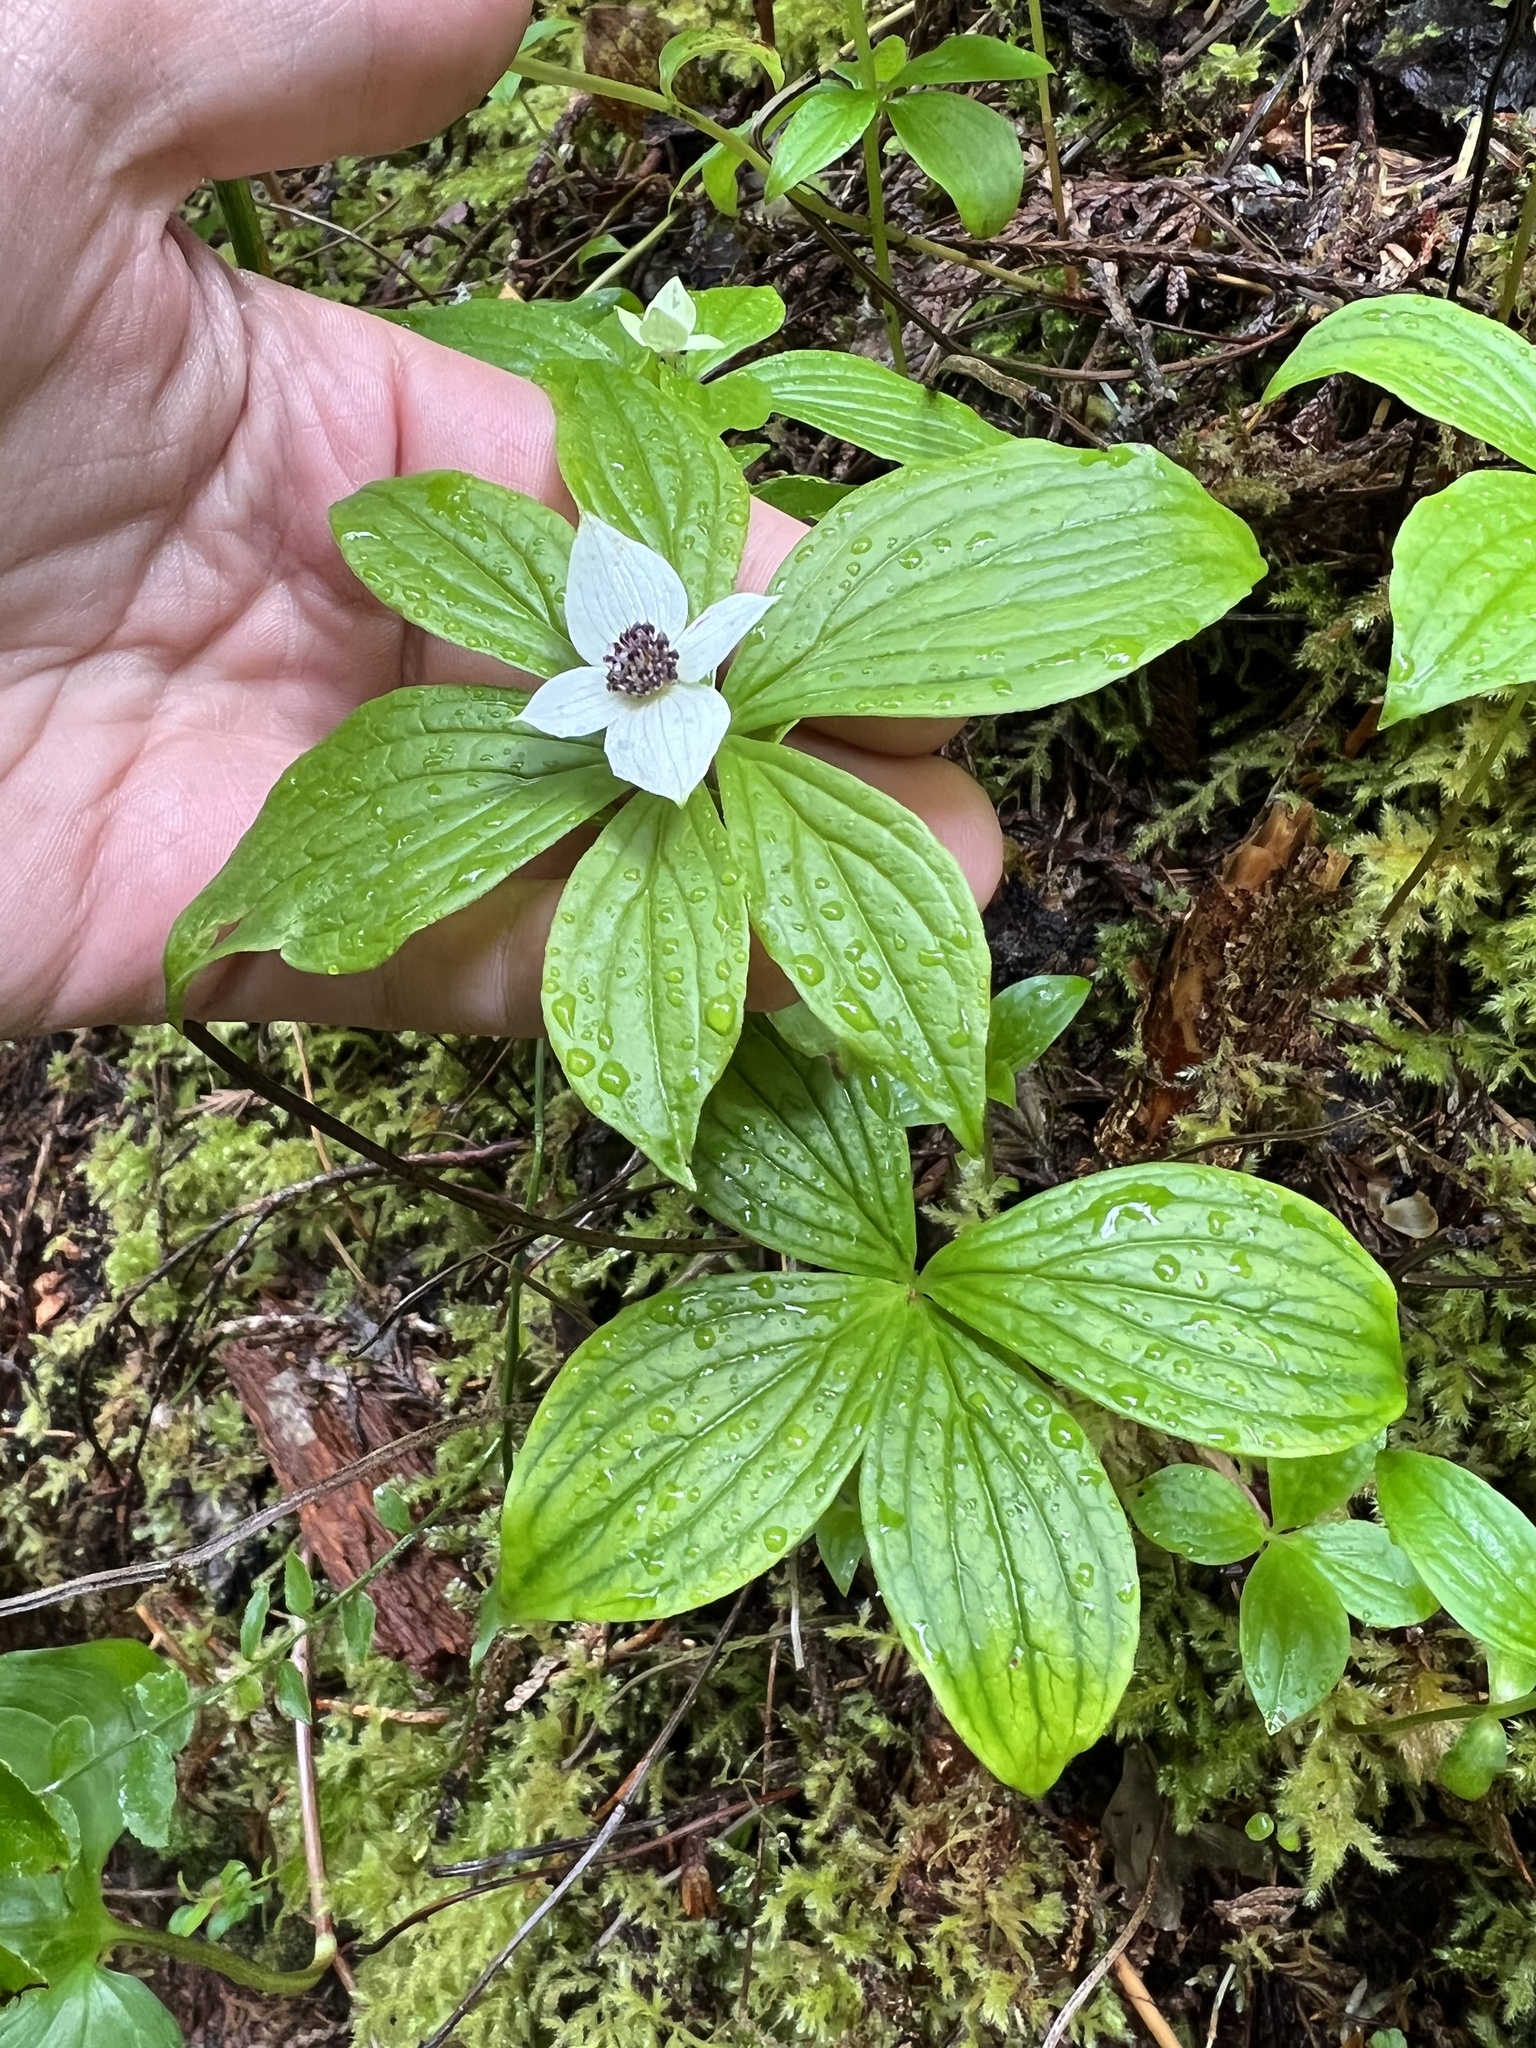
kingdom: Plantae
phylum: Tracheophyta
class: Magnoliopsida
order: Cornales
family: Cornaceae
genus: Cornus
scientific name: Cornus unalaschkensis
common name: Alaska bunchberry
